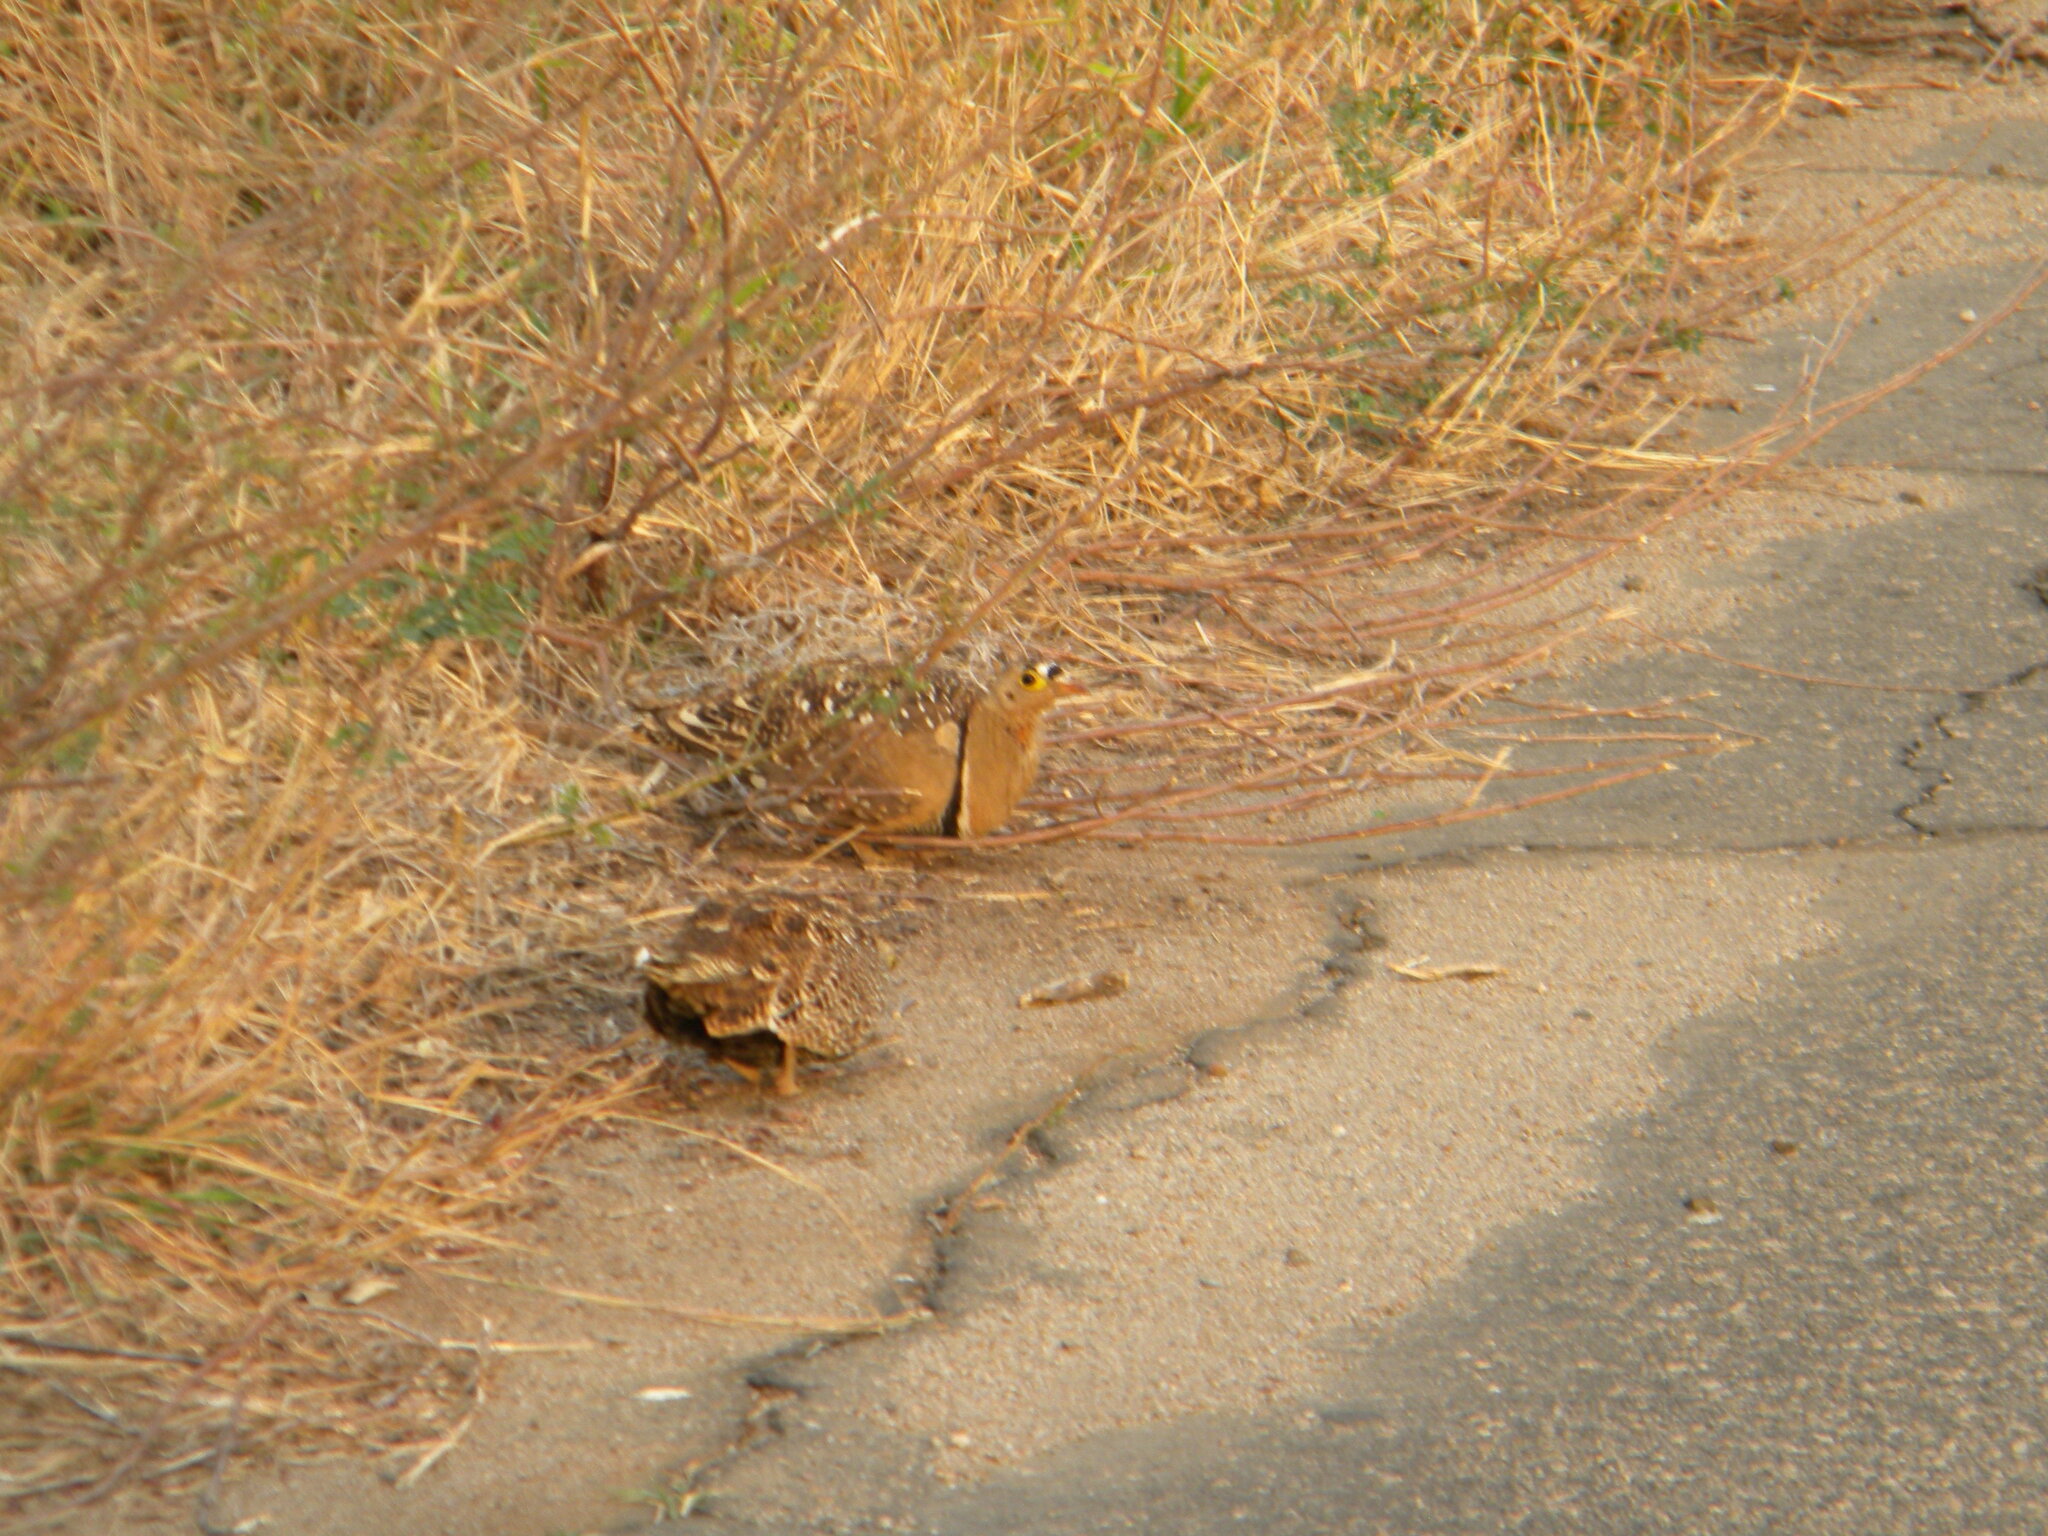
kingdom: Animalia
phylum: Chordata
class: Aves
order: Pteroclidiformes
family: Pteroclididae
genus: Pterocles
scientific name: Pterocles bicinctus
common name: Double-banded sandgrouse
